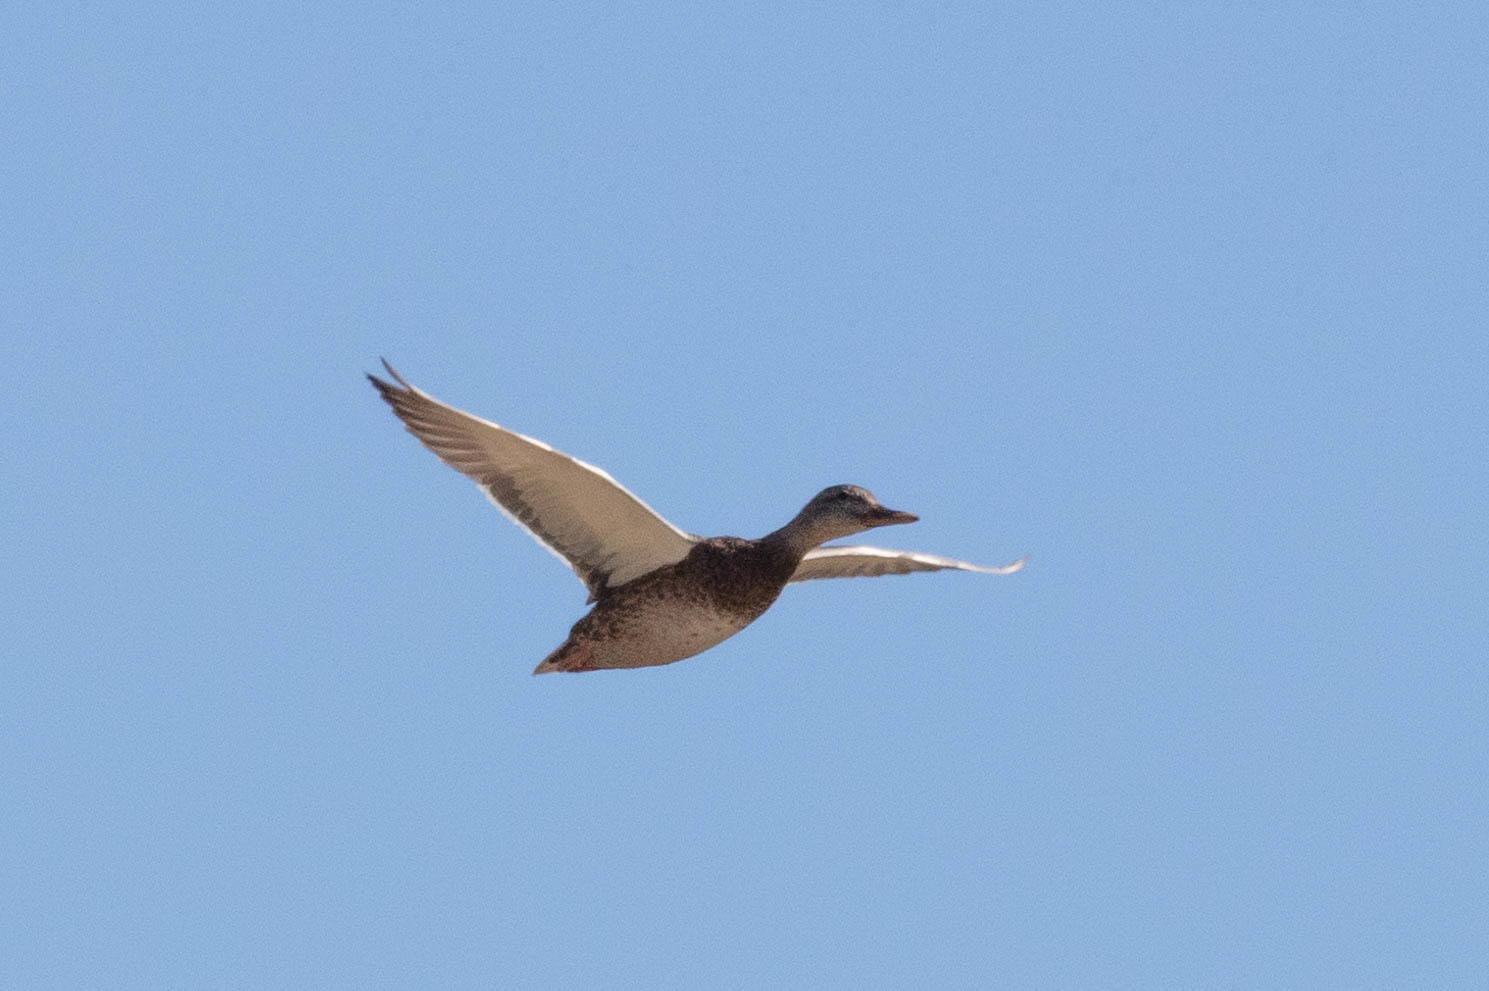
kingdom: Animalia
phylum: Chordata
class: Aves
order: Anseriformes
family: Anatidae
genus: Mareca
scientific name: Mareca strepera
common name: Gadwall
